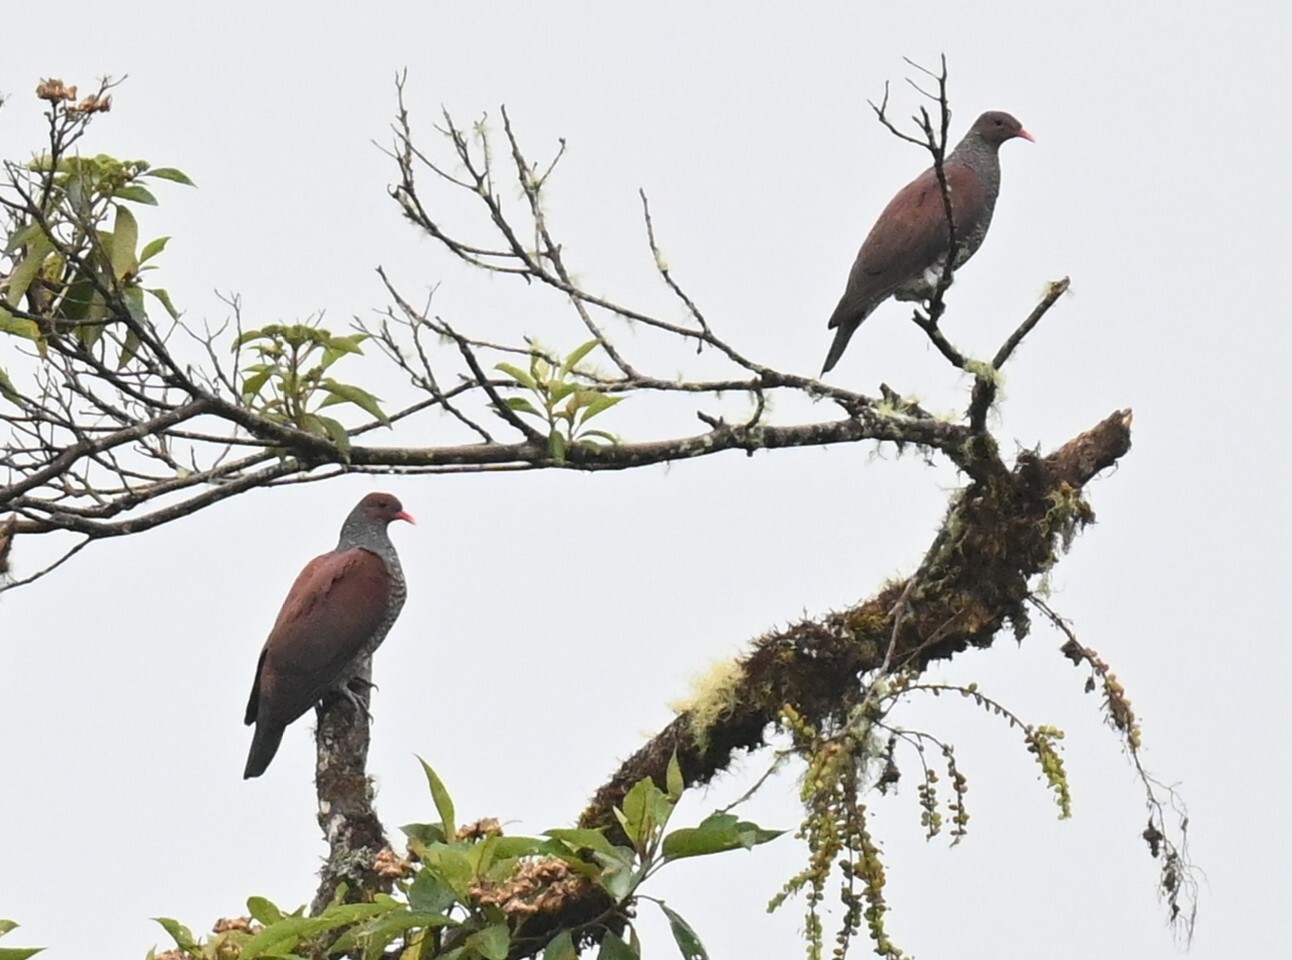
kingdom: Animalia
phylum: Chordata
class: Aves
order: Columbiformes
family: Columbidae
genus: Patagioenas
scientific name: Patagioenas speciosa
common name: Scaled pigeon
